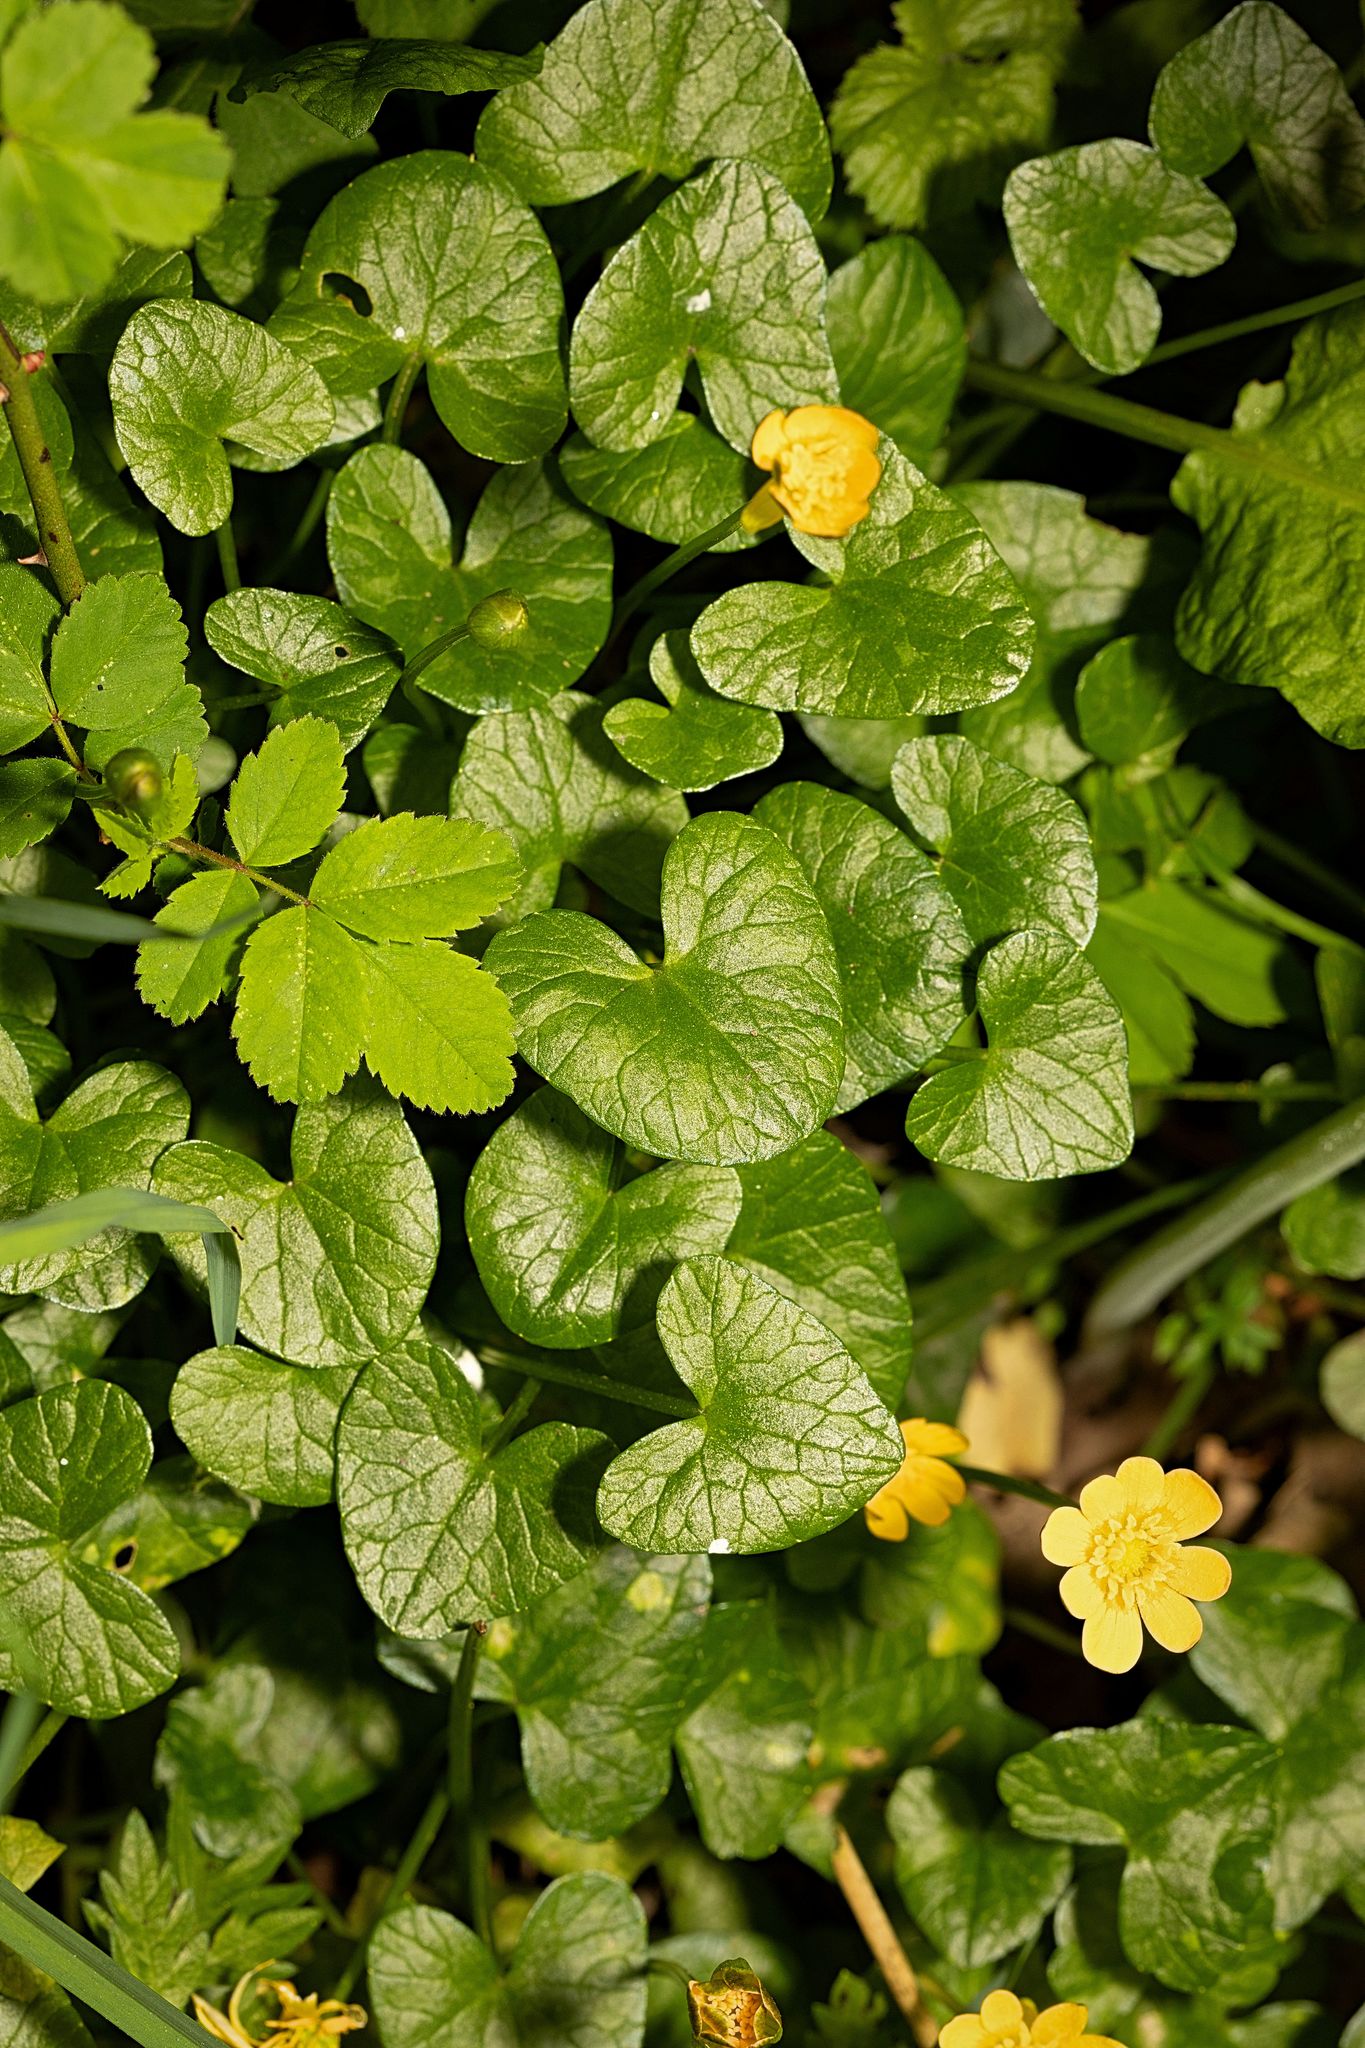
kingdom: Plantae
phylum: Tracheophyta
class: Magnoliopsida
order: Ranunculales
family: Ranunculaceae
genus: Ficaria
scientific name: Ficaria verna
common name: Lesser celandine
